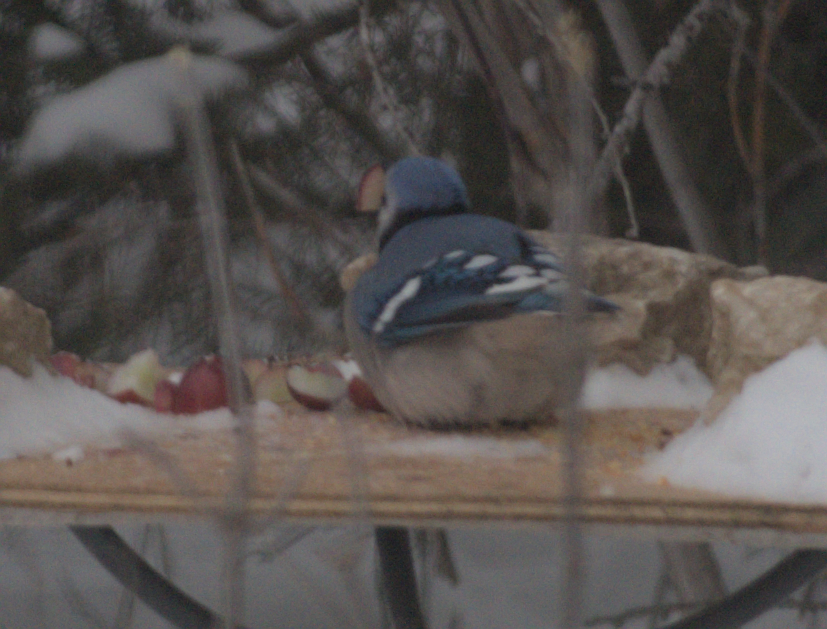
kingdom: Animalia
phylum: Chordata
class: Aves
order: Passeriformes
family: Corvidae
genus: Cyanocitta
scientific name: Cyanocitta cristata
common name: Blue jay
